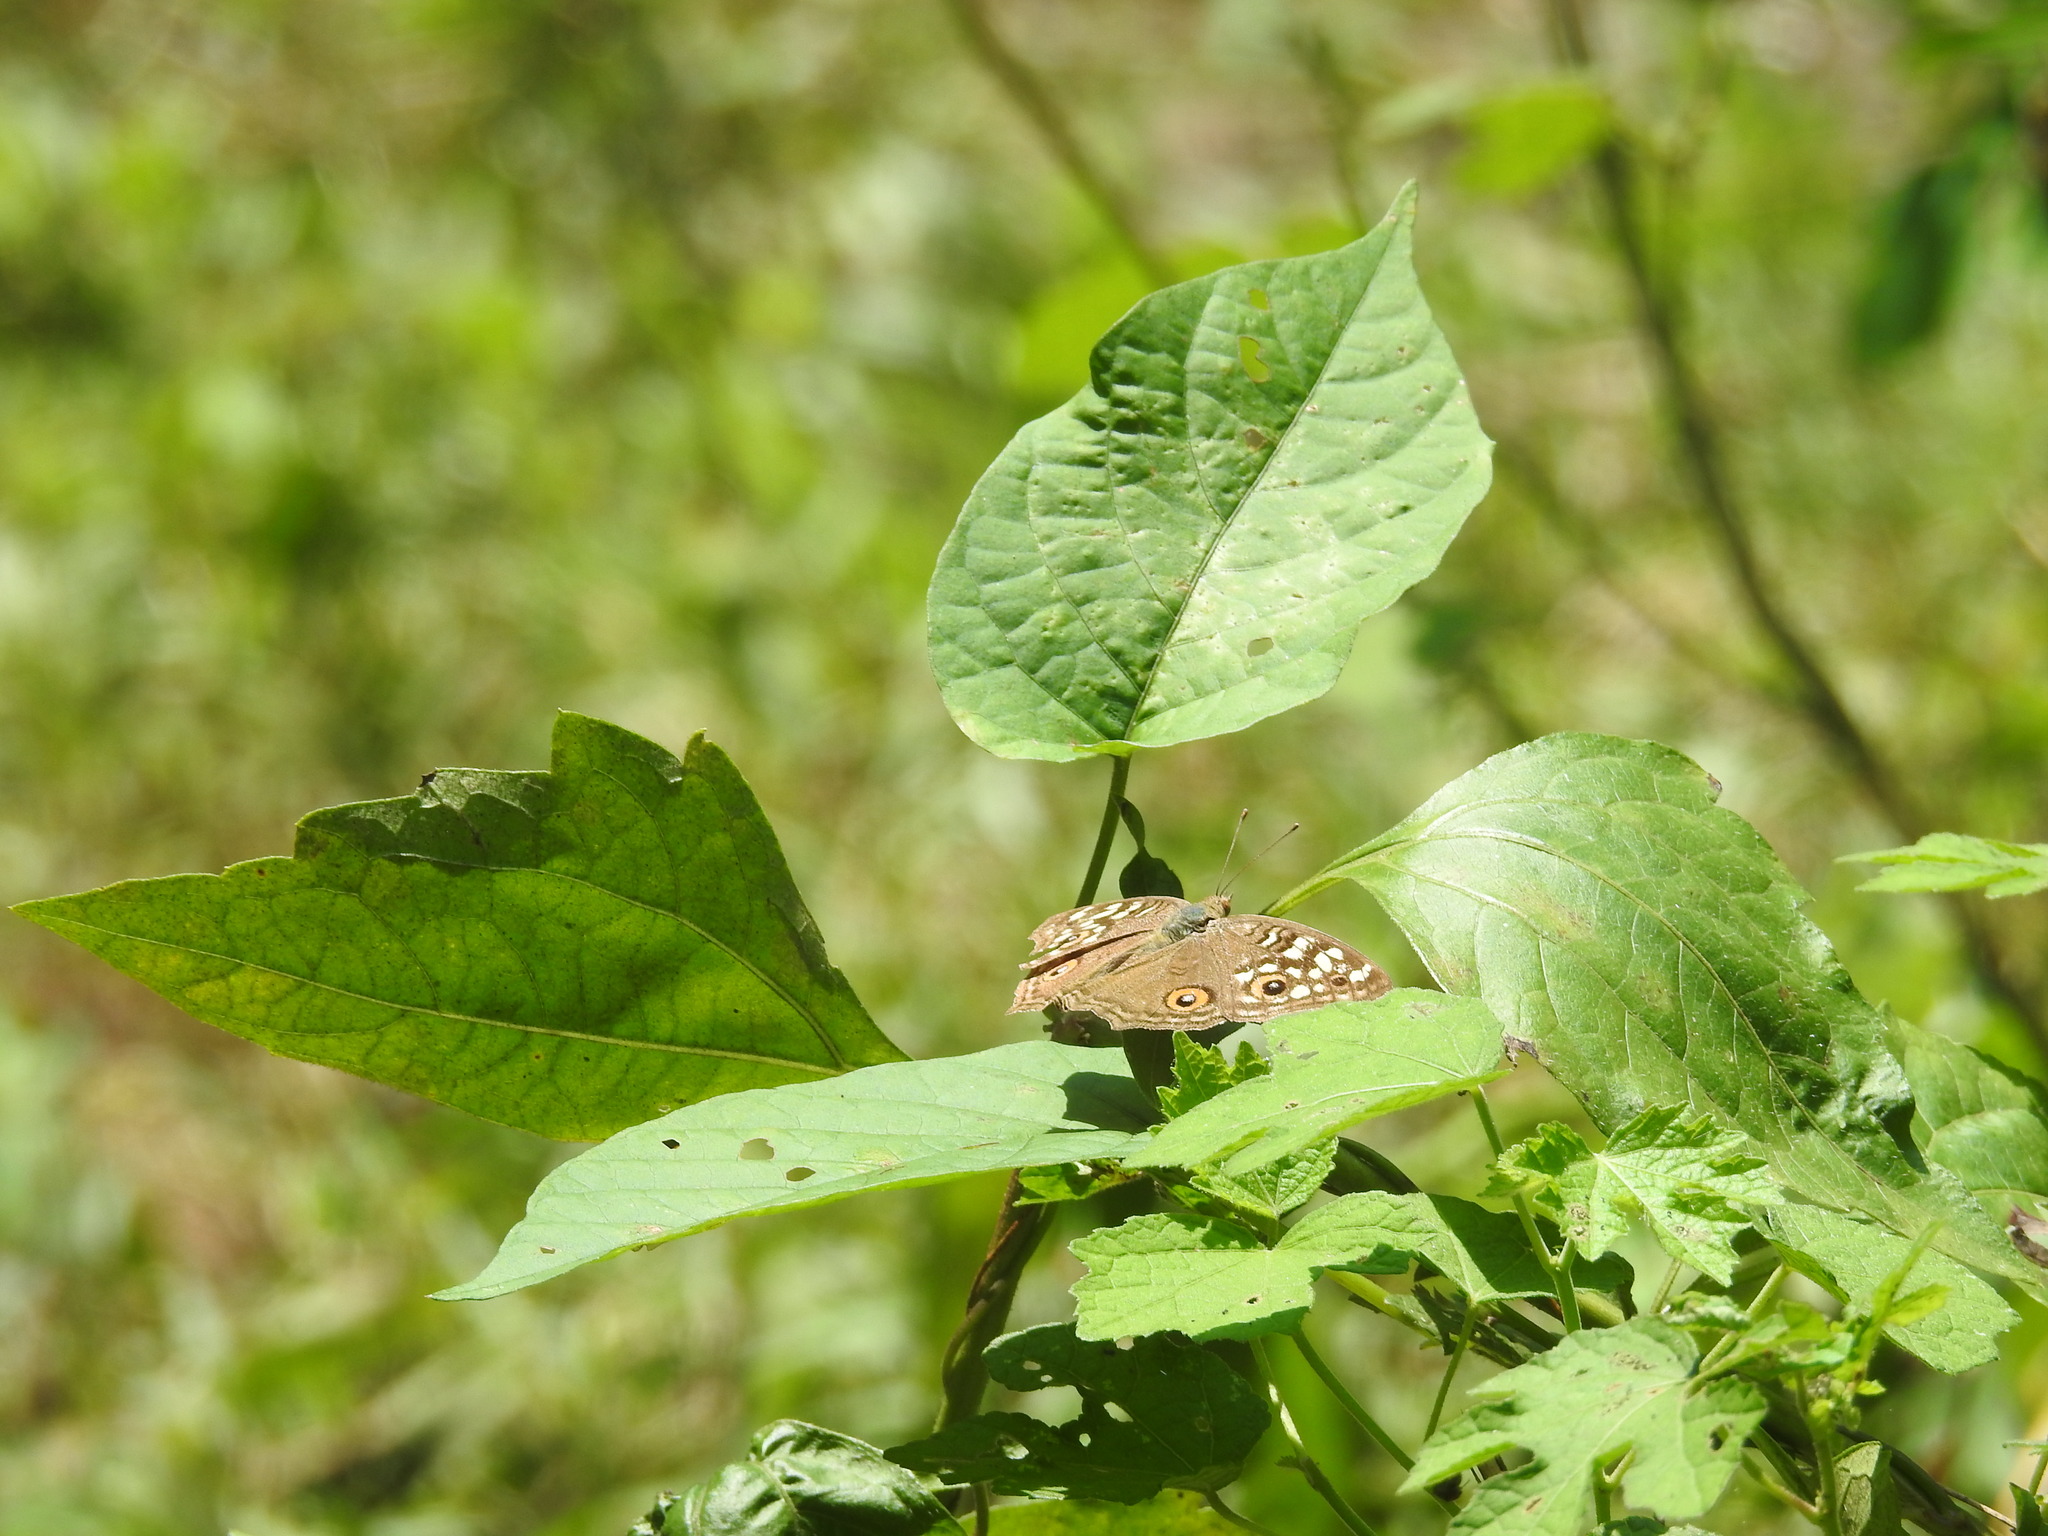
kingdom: Animalia
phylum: Arthropoda
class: Insecta
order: Lepidoptera
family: Nymphalidae
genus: Junonia
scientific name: Junonia lemonias
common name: Lemon pansy
